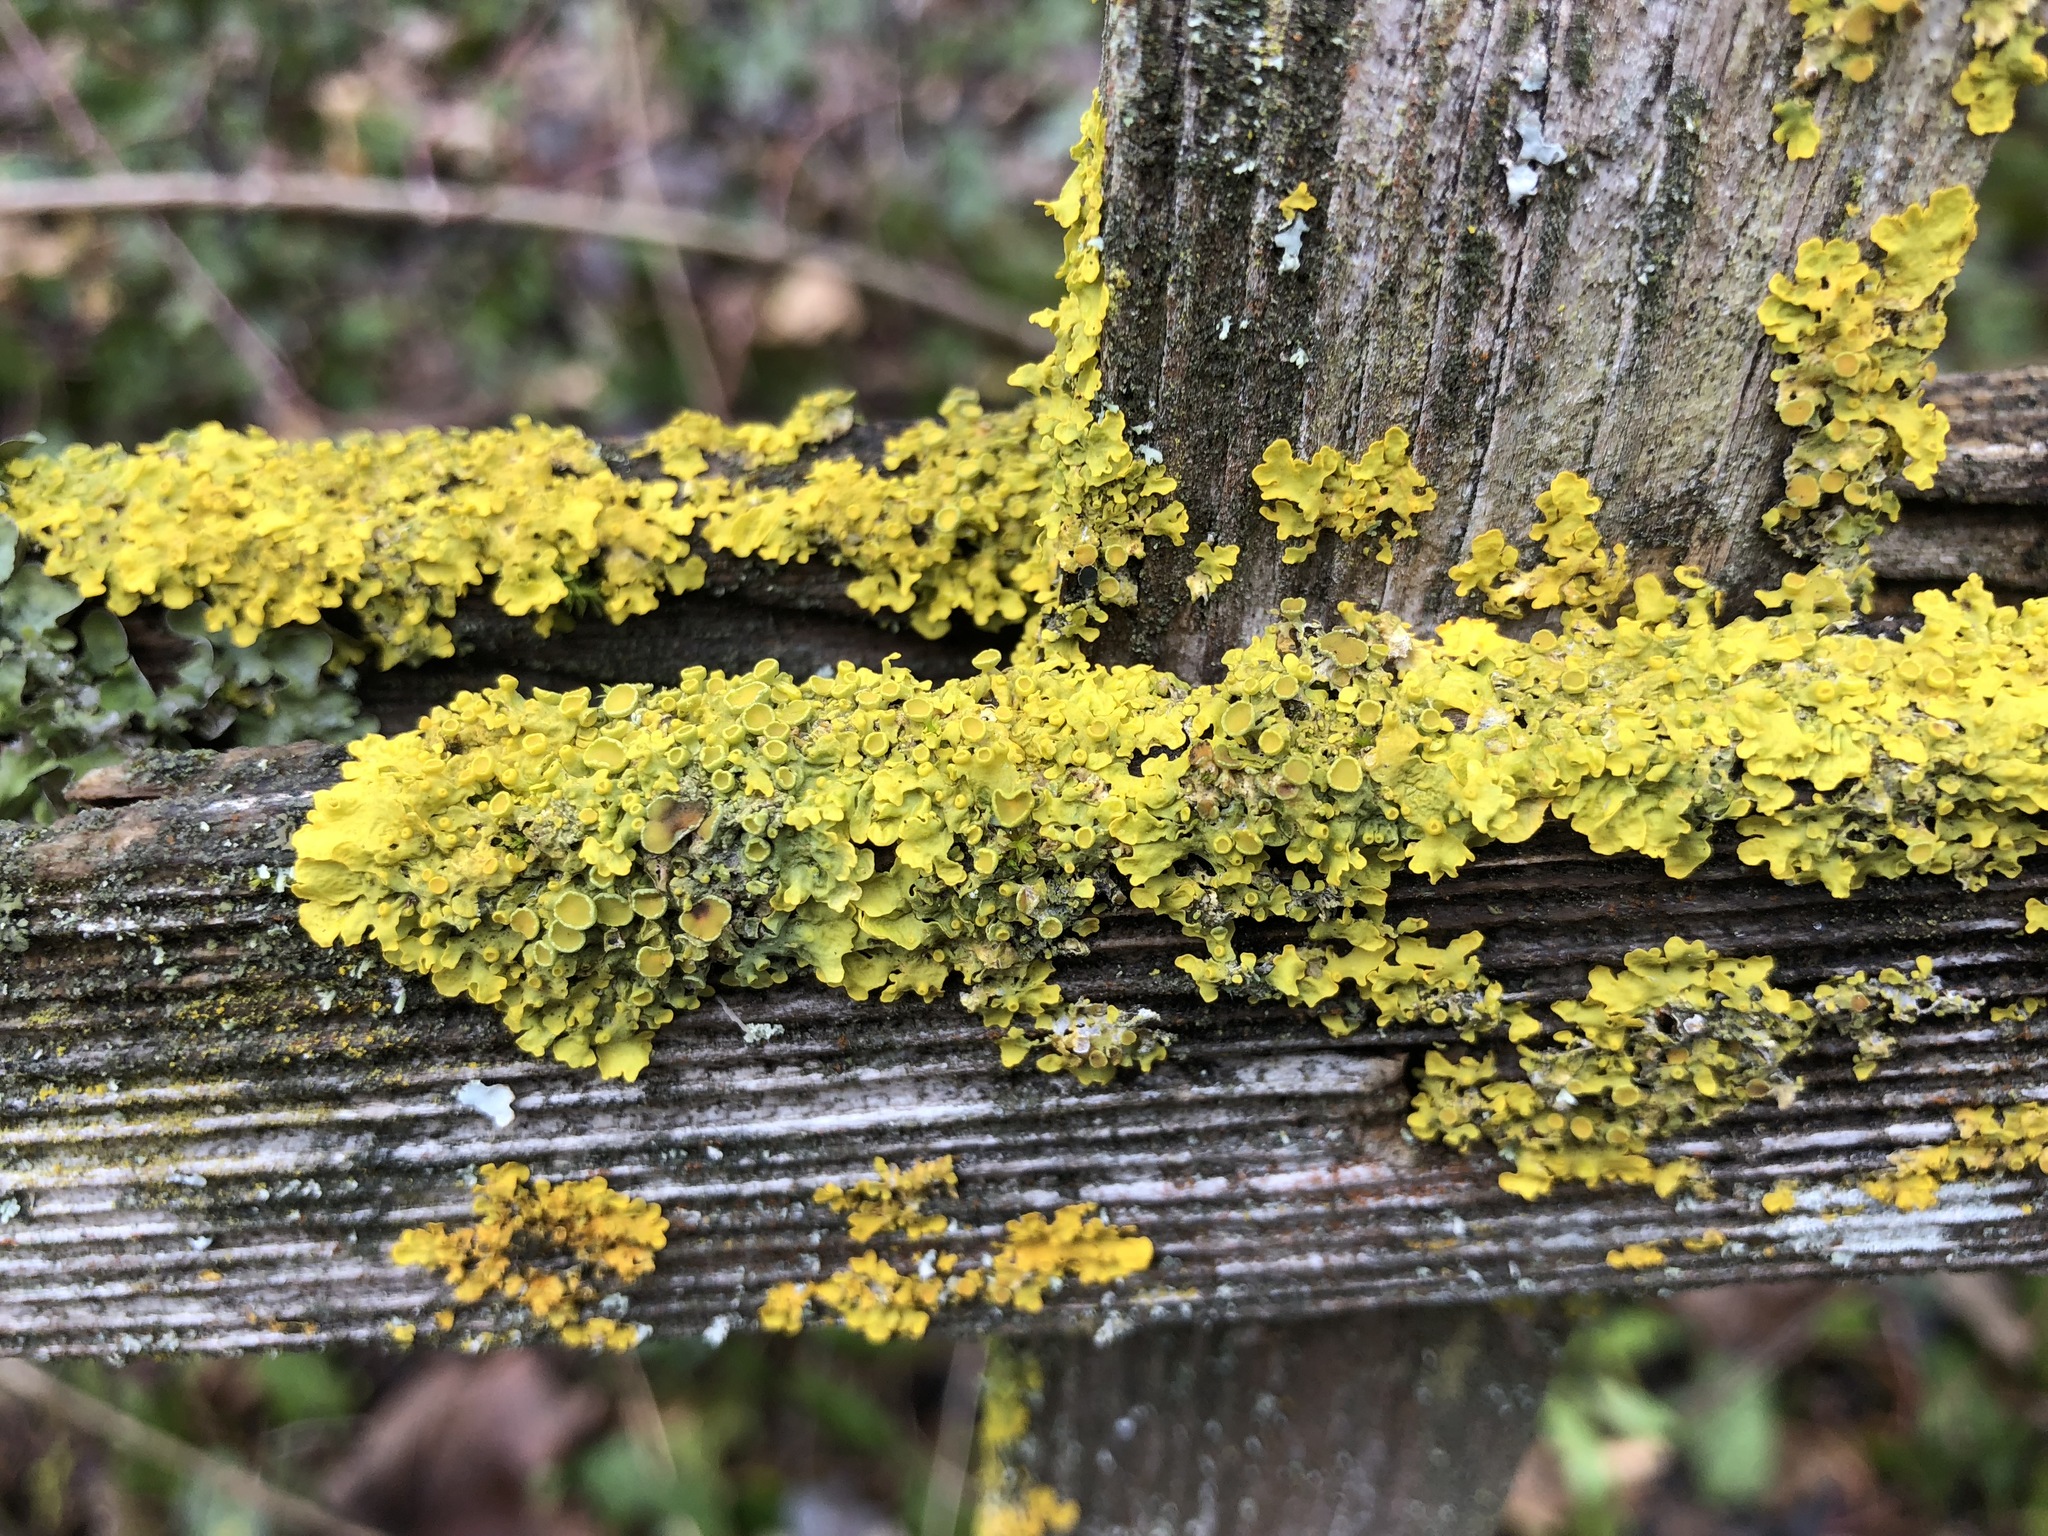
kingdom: Fungi
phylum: Ascomycota
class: Lecanoromycetes
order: Teloschistales
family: Teloschistaceae
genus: Xanthoria
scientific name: Xanthoria parietina
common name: Common orange lichen
